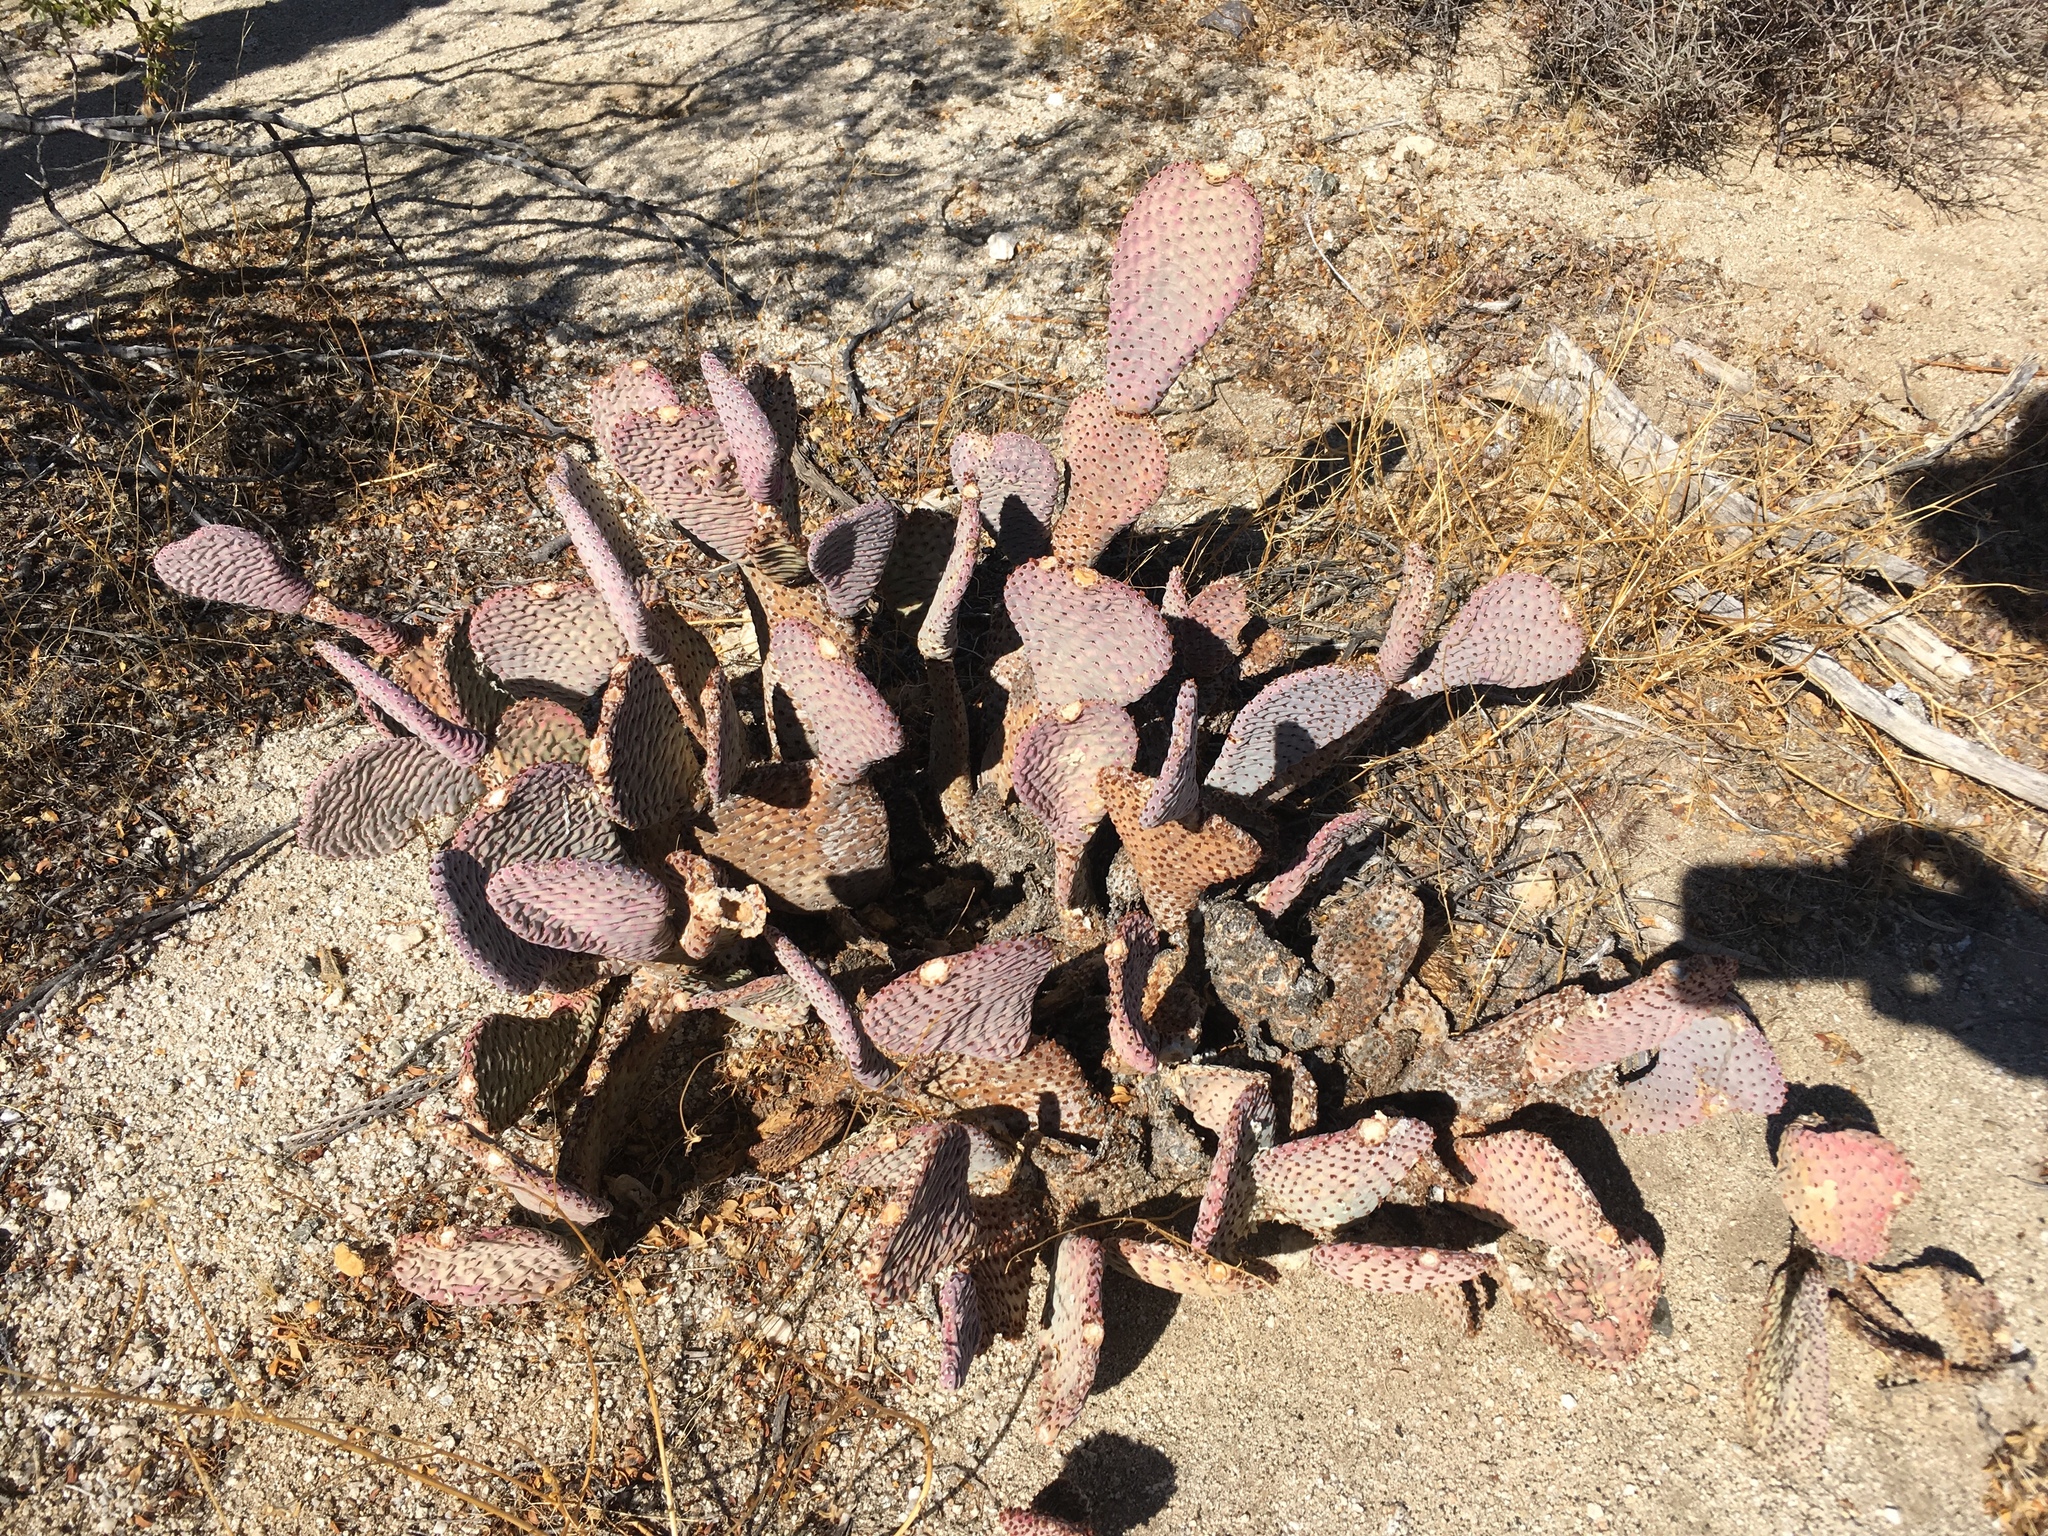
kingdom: Plantae
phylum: Tracheophyta
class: Magnoliopsida
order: Caryophyllales
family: Cactaceae
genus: Opuntia
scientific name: Opuntia basilaris
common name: Beavertail prickly-pear
